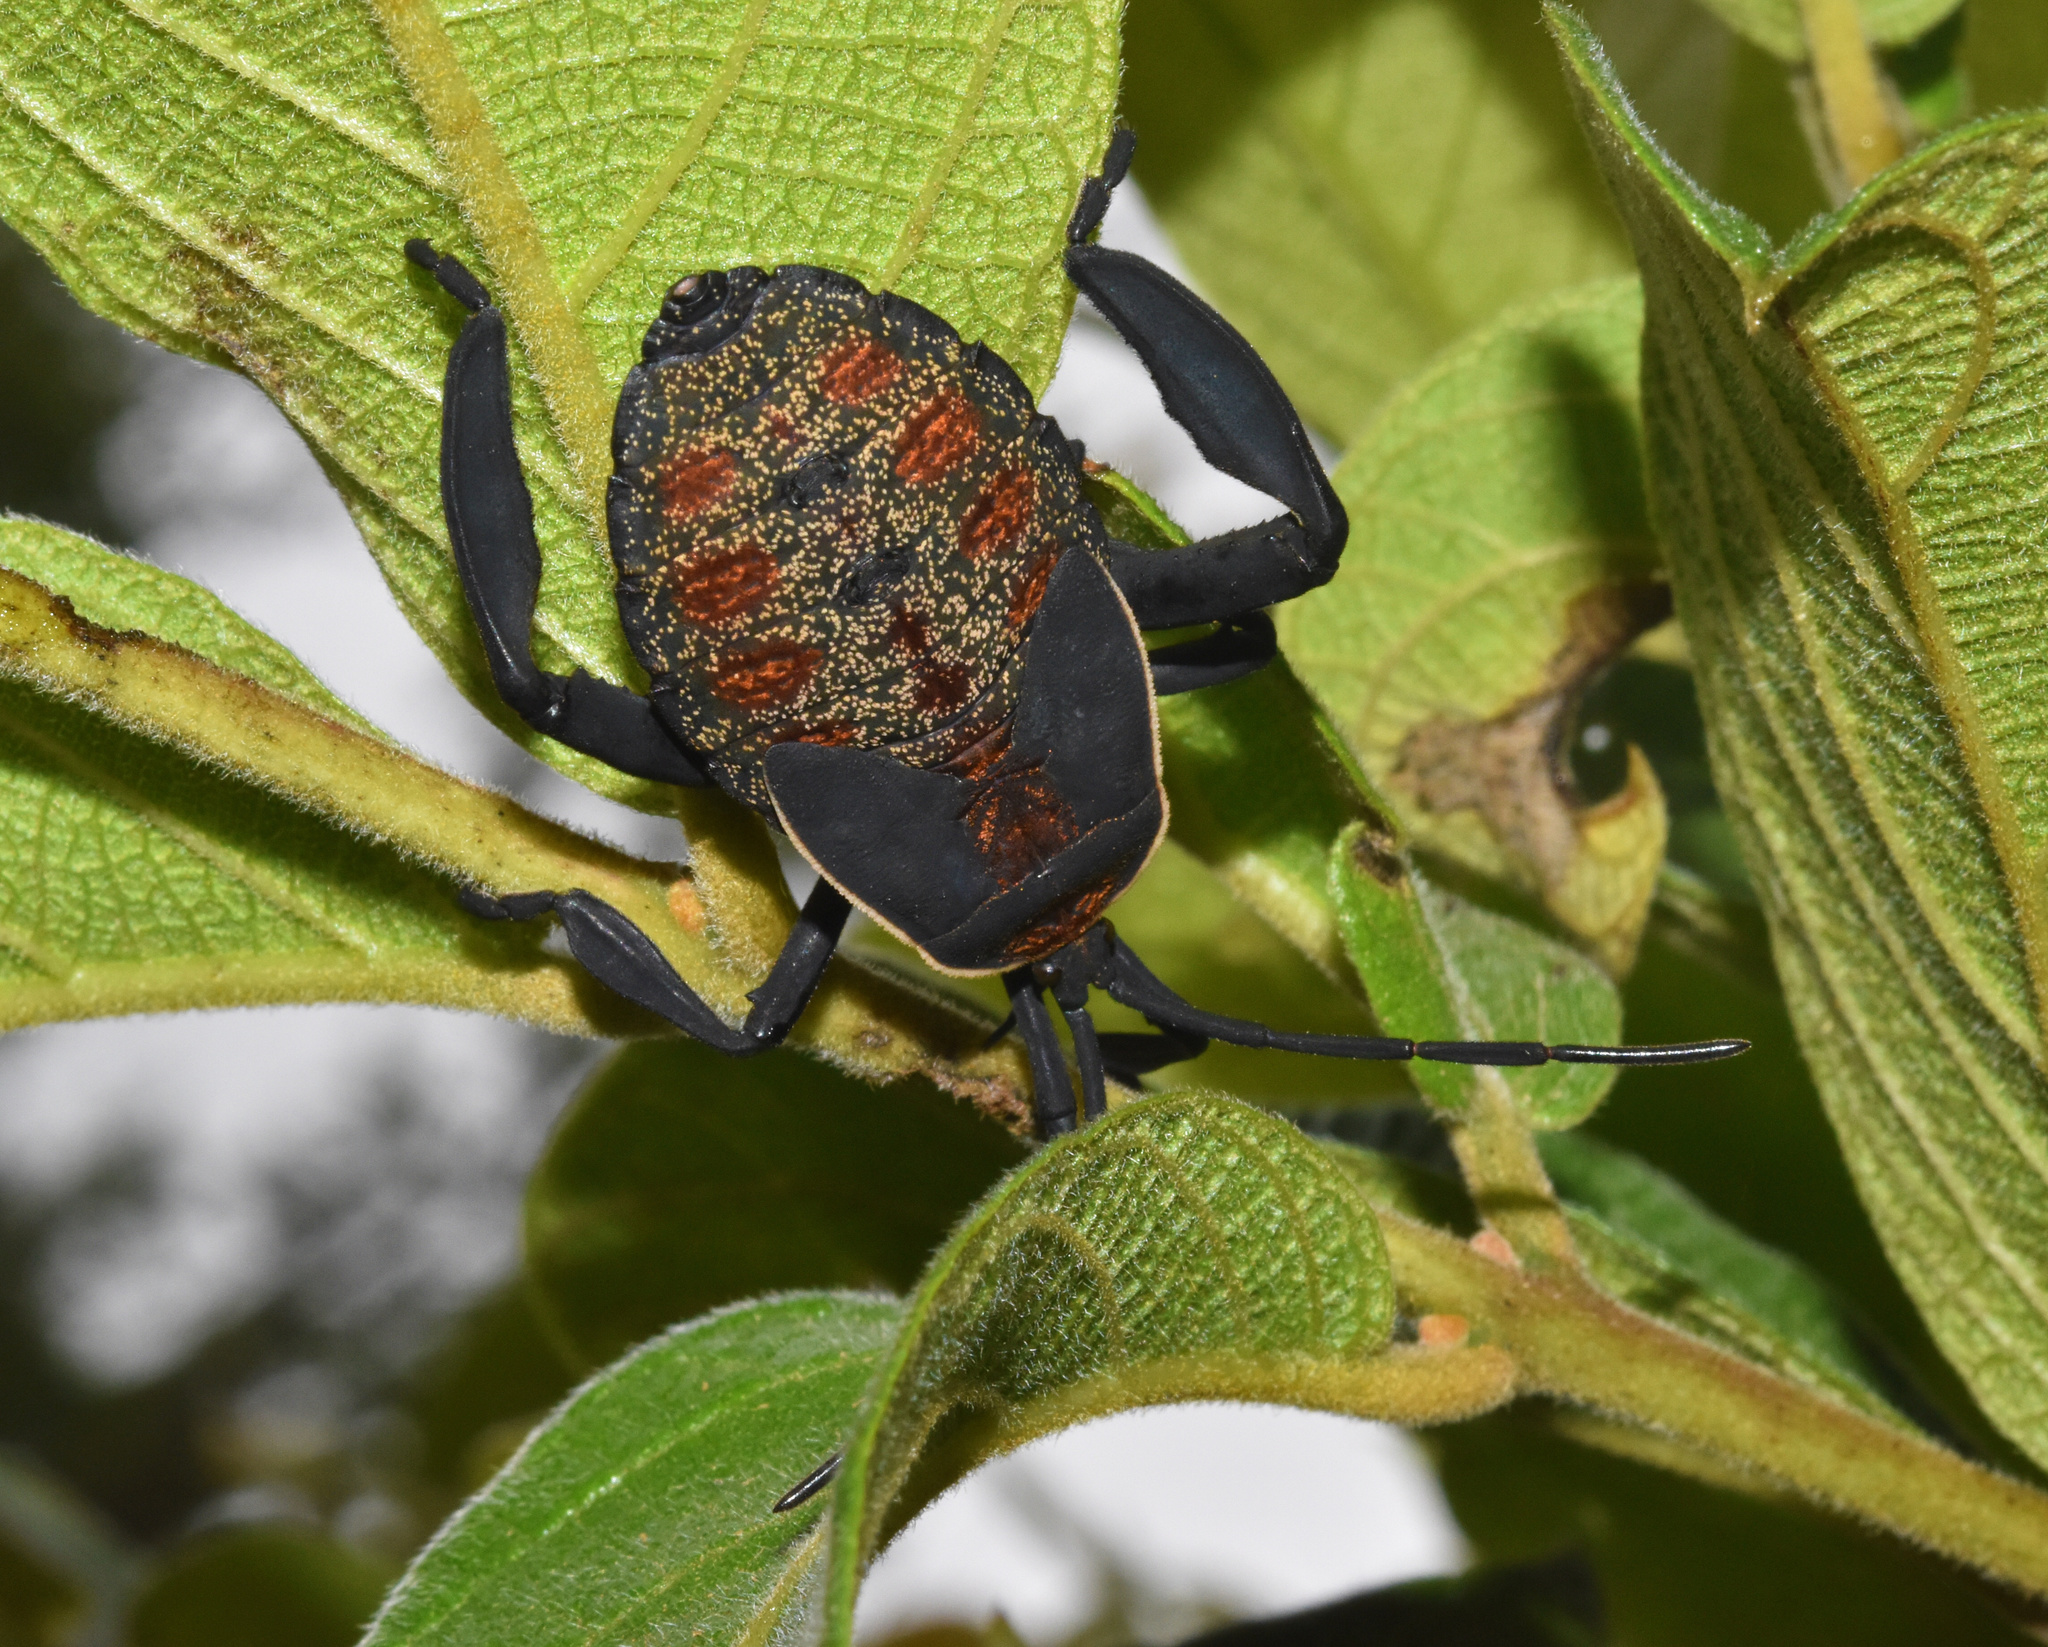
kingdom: Animalia
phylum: Arthropoda
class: Insecta
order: Hemiptera
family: Coreidae
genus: Petascelis
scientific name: Petascelis remipes
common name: Giant twig wilter
